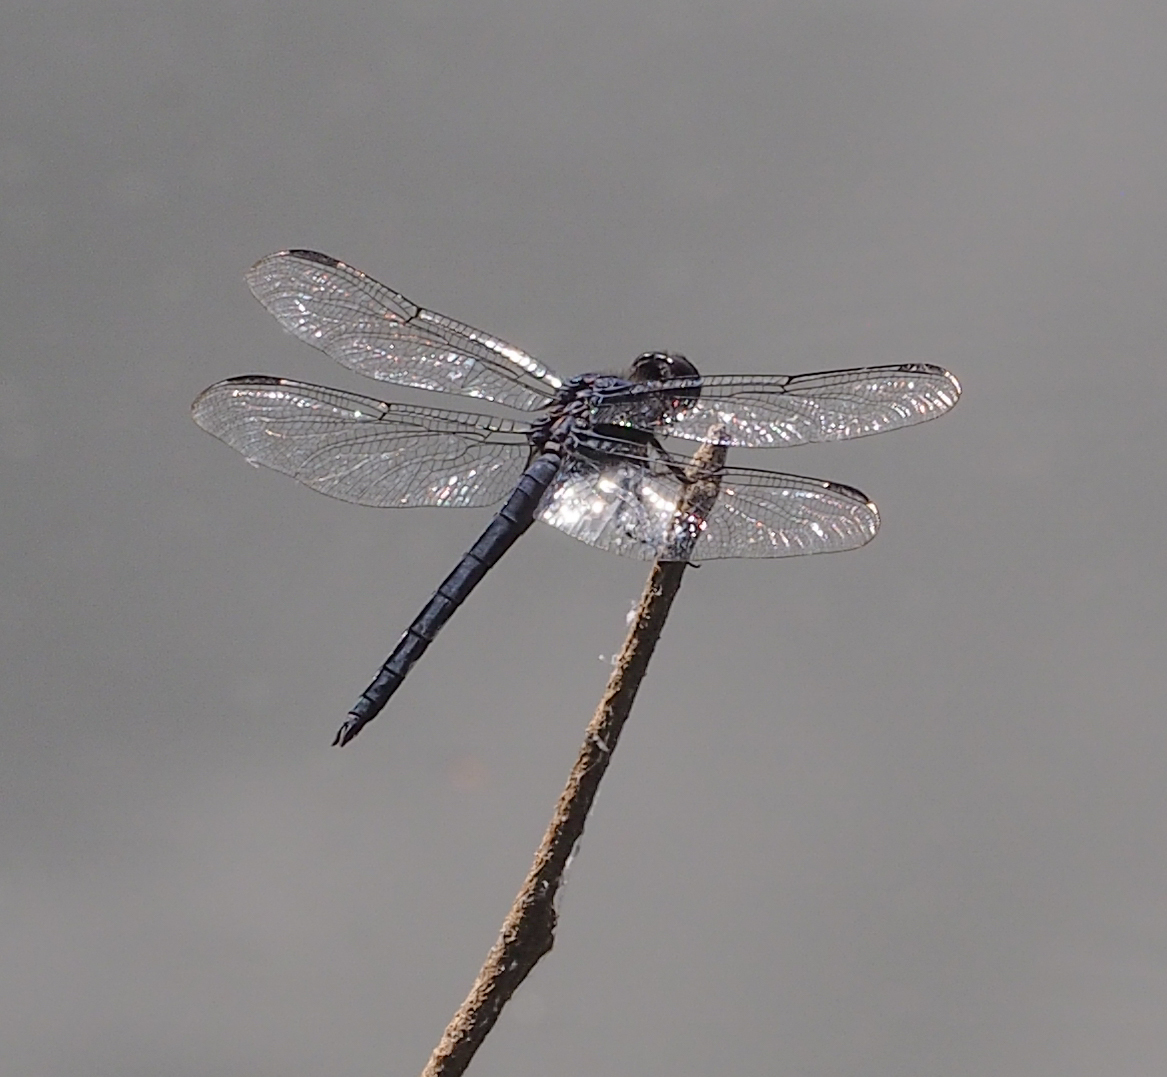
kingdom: Animalia
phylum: Arthropoda
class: Insecta
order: Odonata
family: Libellulidae
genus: Libellula
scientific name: Libellula incesta
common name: Slaty skimmer
